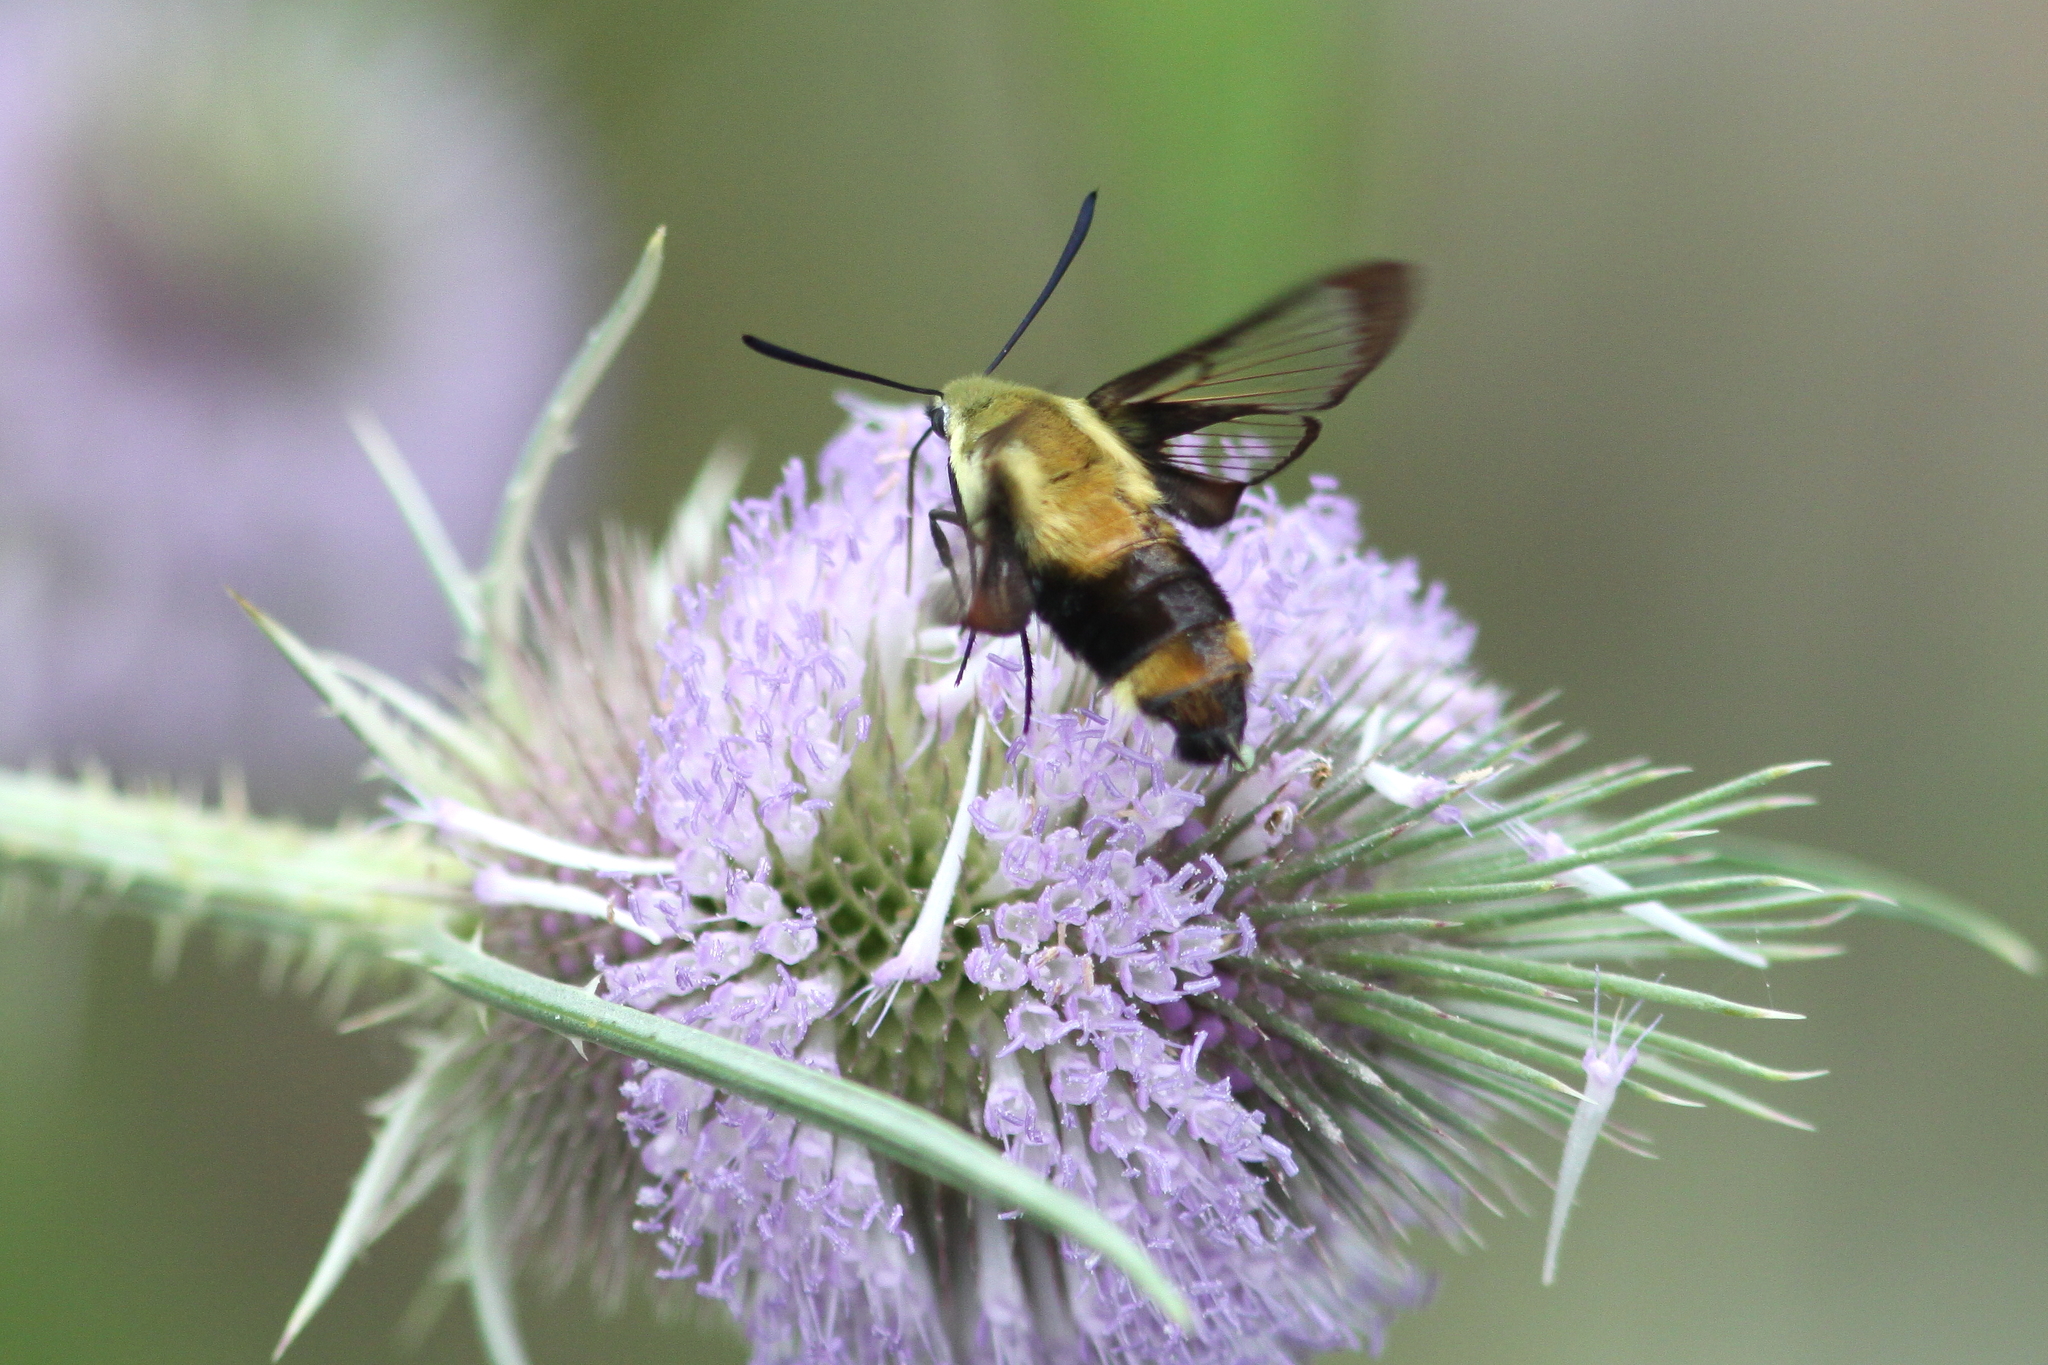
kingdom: Animalia
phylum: Arthropoda
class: Insecta
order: Lepidoptera
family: Sphingidae
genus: Hemaris
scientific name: Hemaris diffinis
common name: Bumblebee moth
